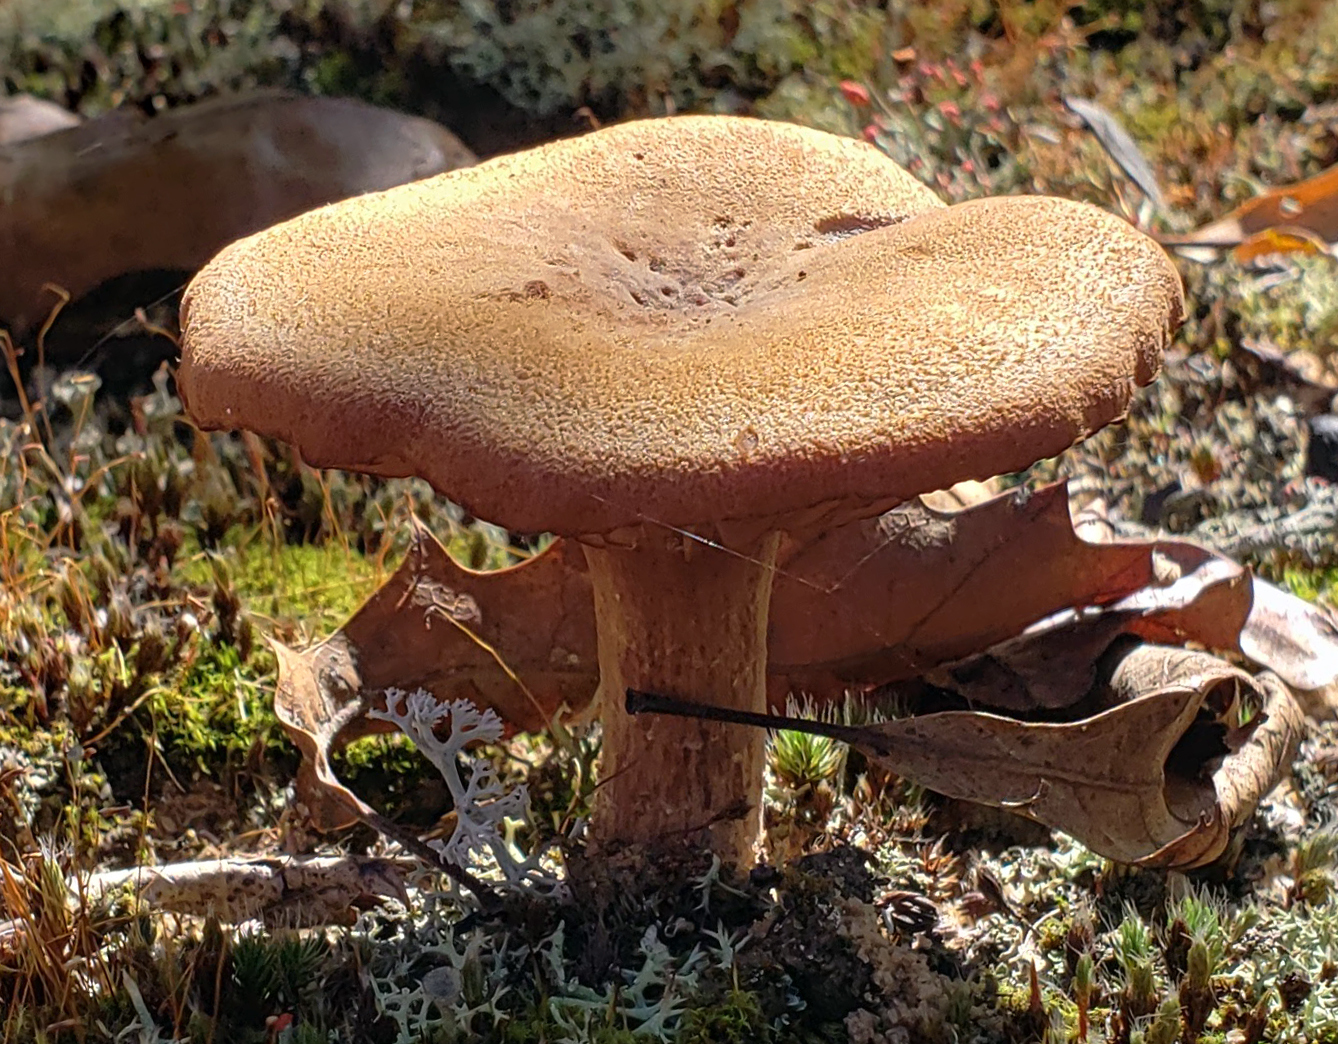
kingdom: Fungi
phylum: Basidiomycota
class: Agaricomycetes
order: Agaricales
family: Hydnangiaceae
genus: Laccaria
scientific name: Laccaria trullissata
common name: Sandy laccaria
